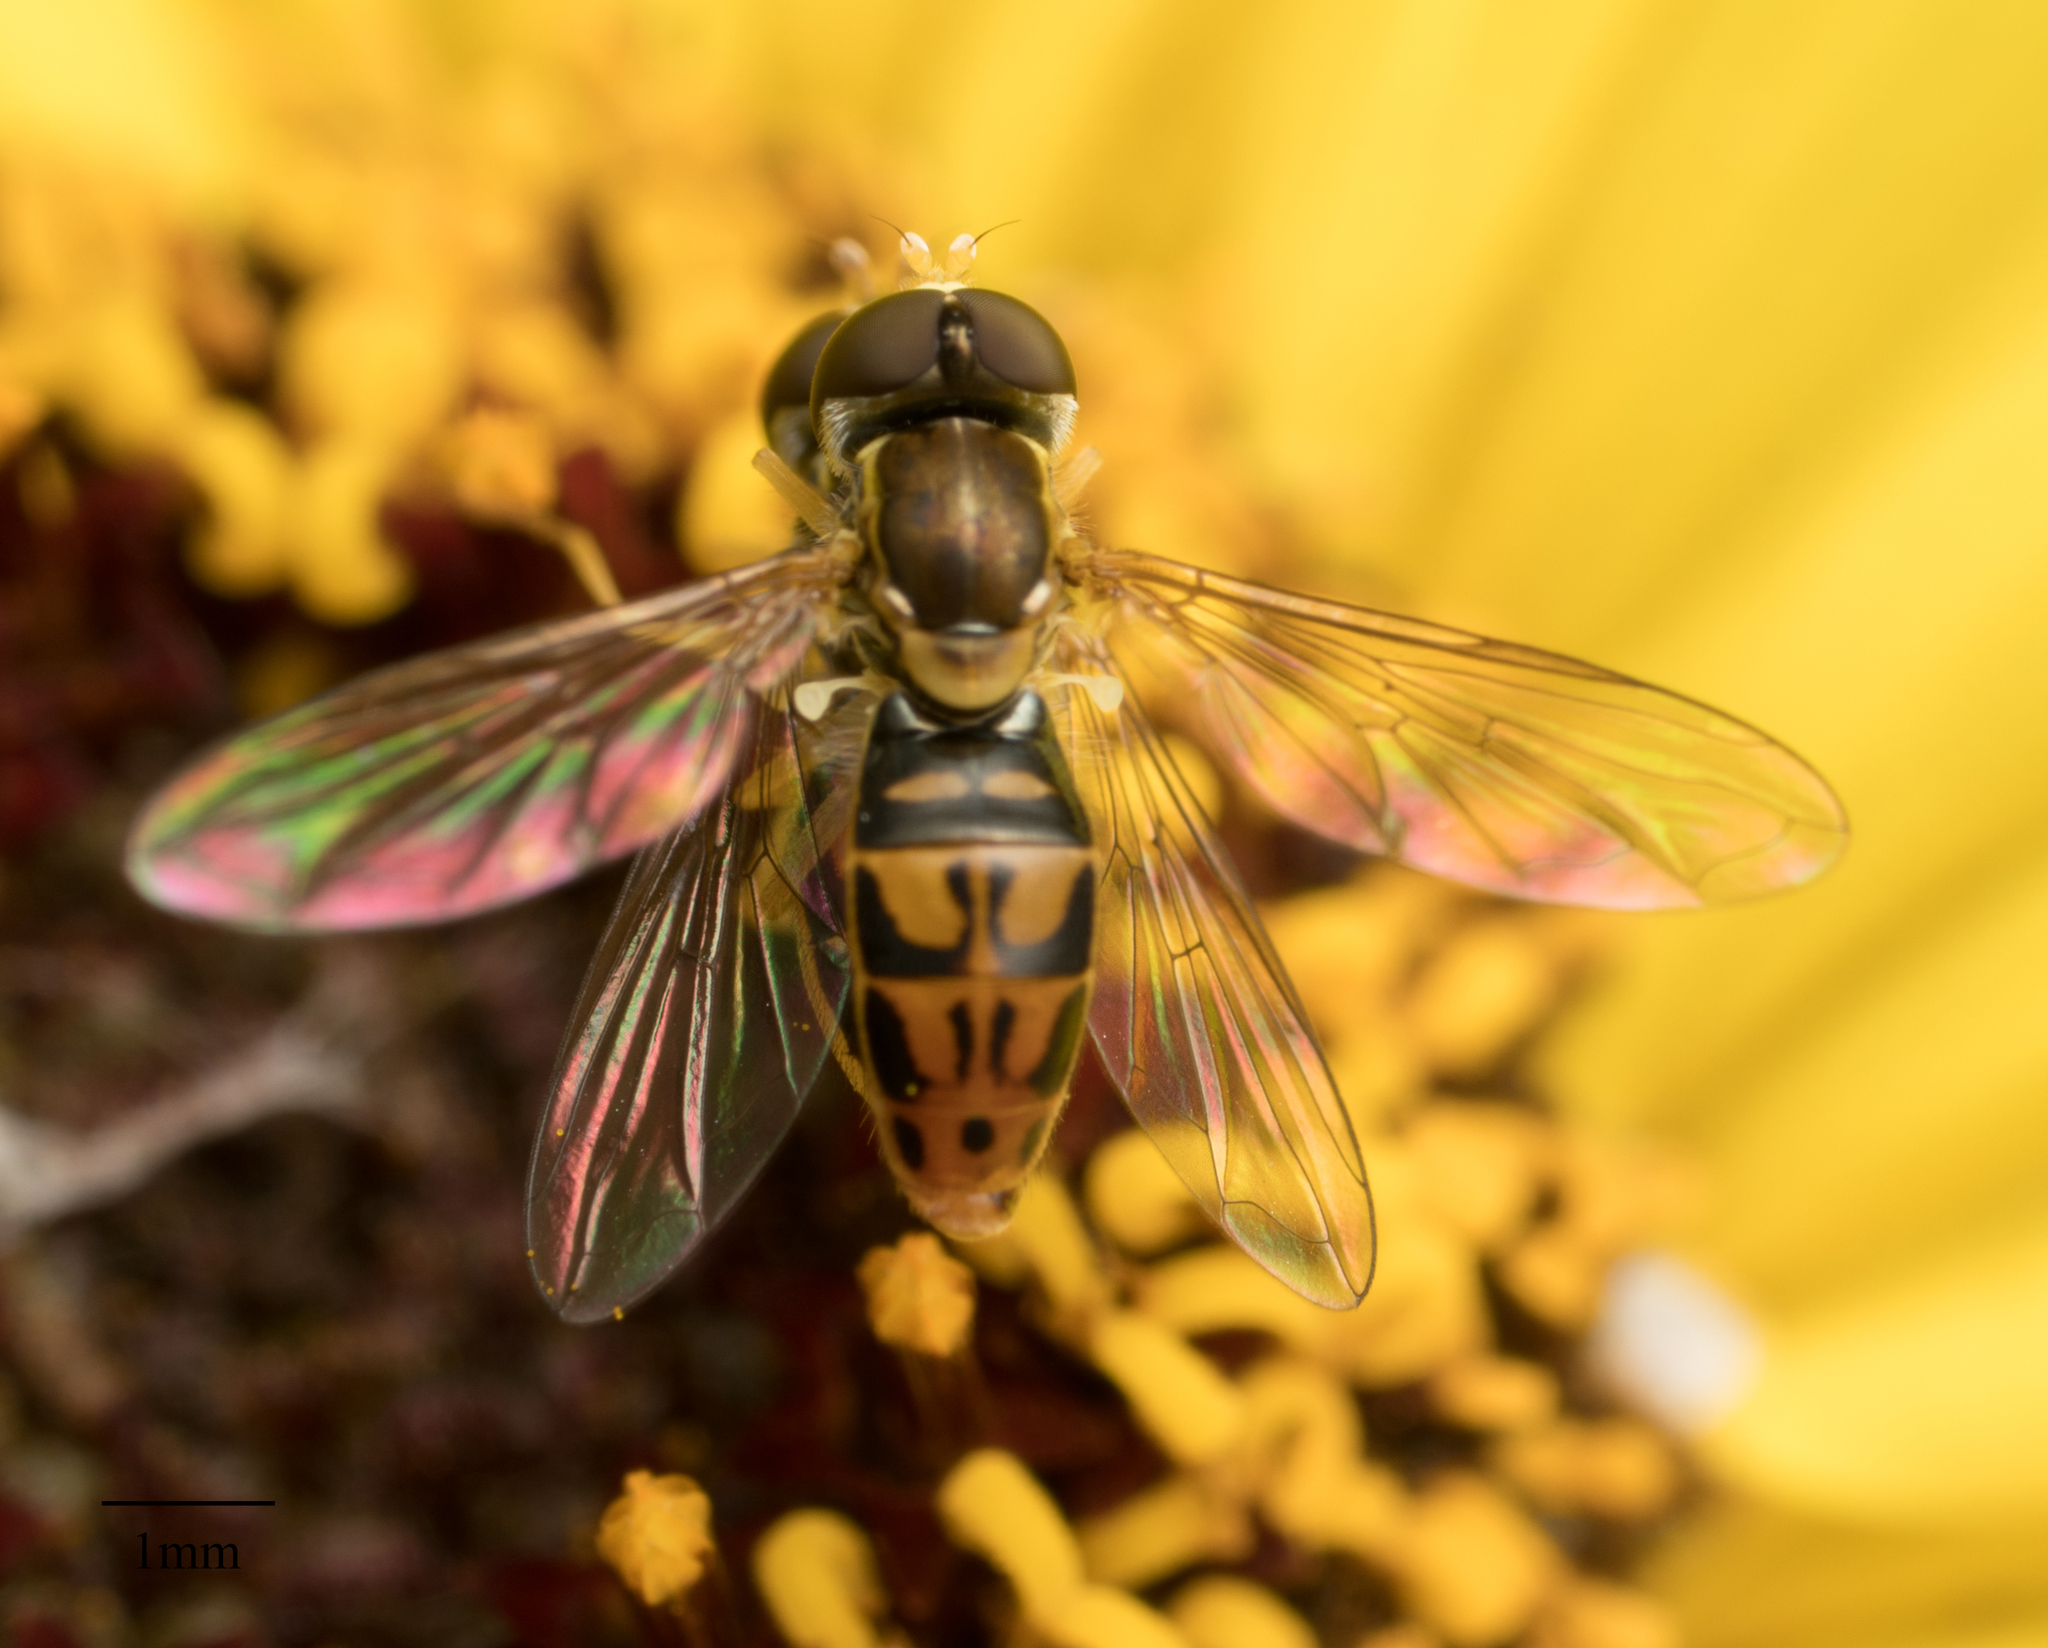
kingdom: Animalia
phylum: Arthropoda
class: Insecta
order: Diptera
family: Syrphidae
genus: Toxomerus
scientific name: Toxomerus marginatus
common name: Syrphid fly
